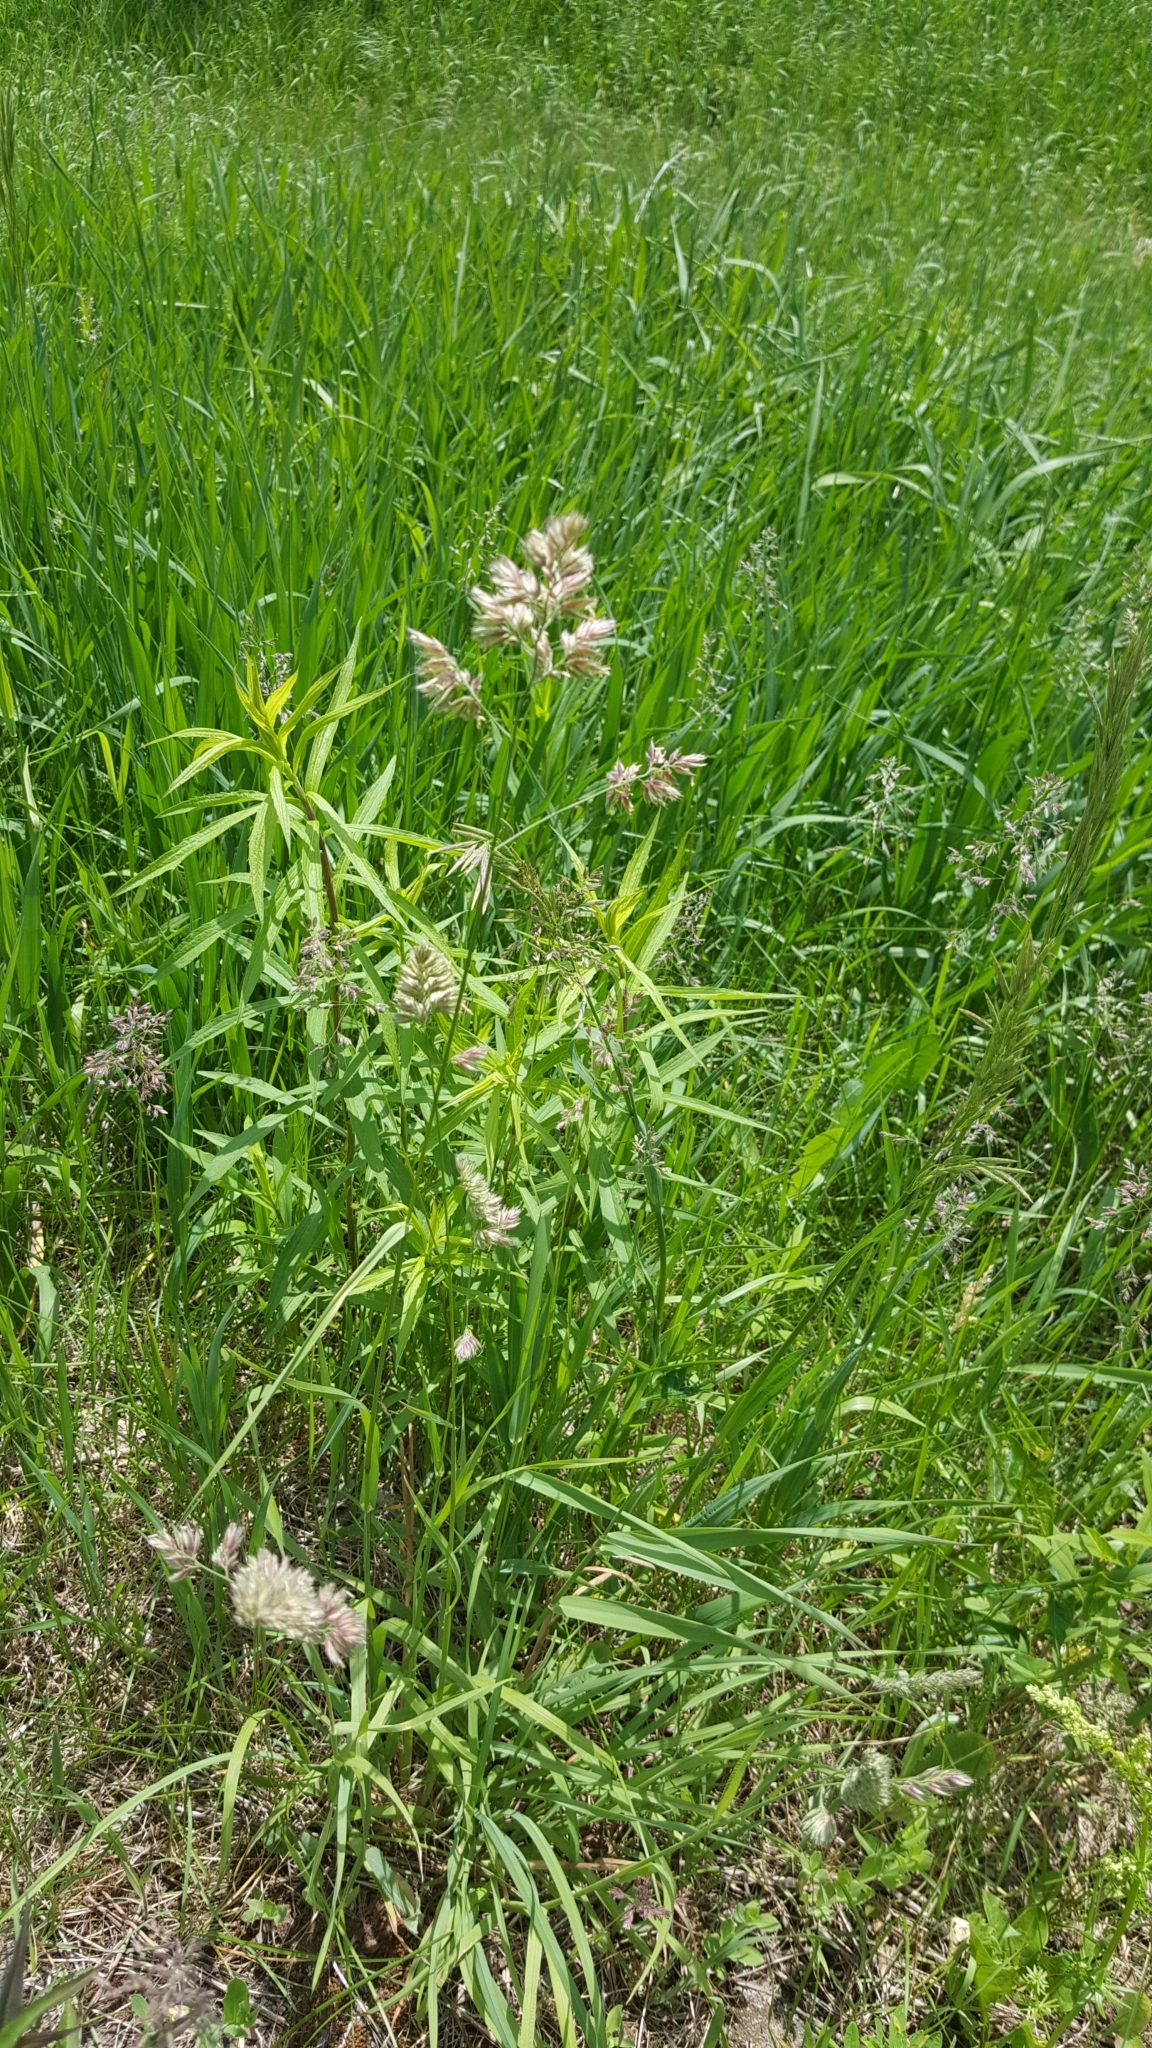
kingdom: Plantae
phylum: Tracheophyta
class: Liliopsida
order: Poales
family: Poaceae
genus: Dactylis
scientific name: Dactylis glomerata
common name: Orchardgrass
